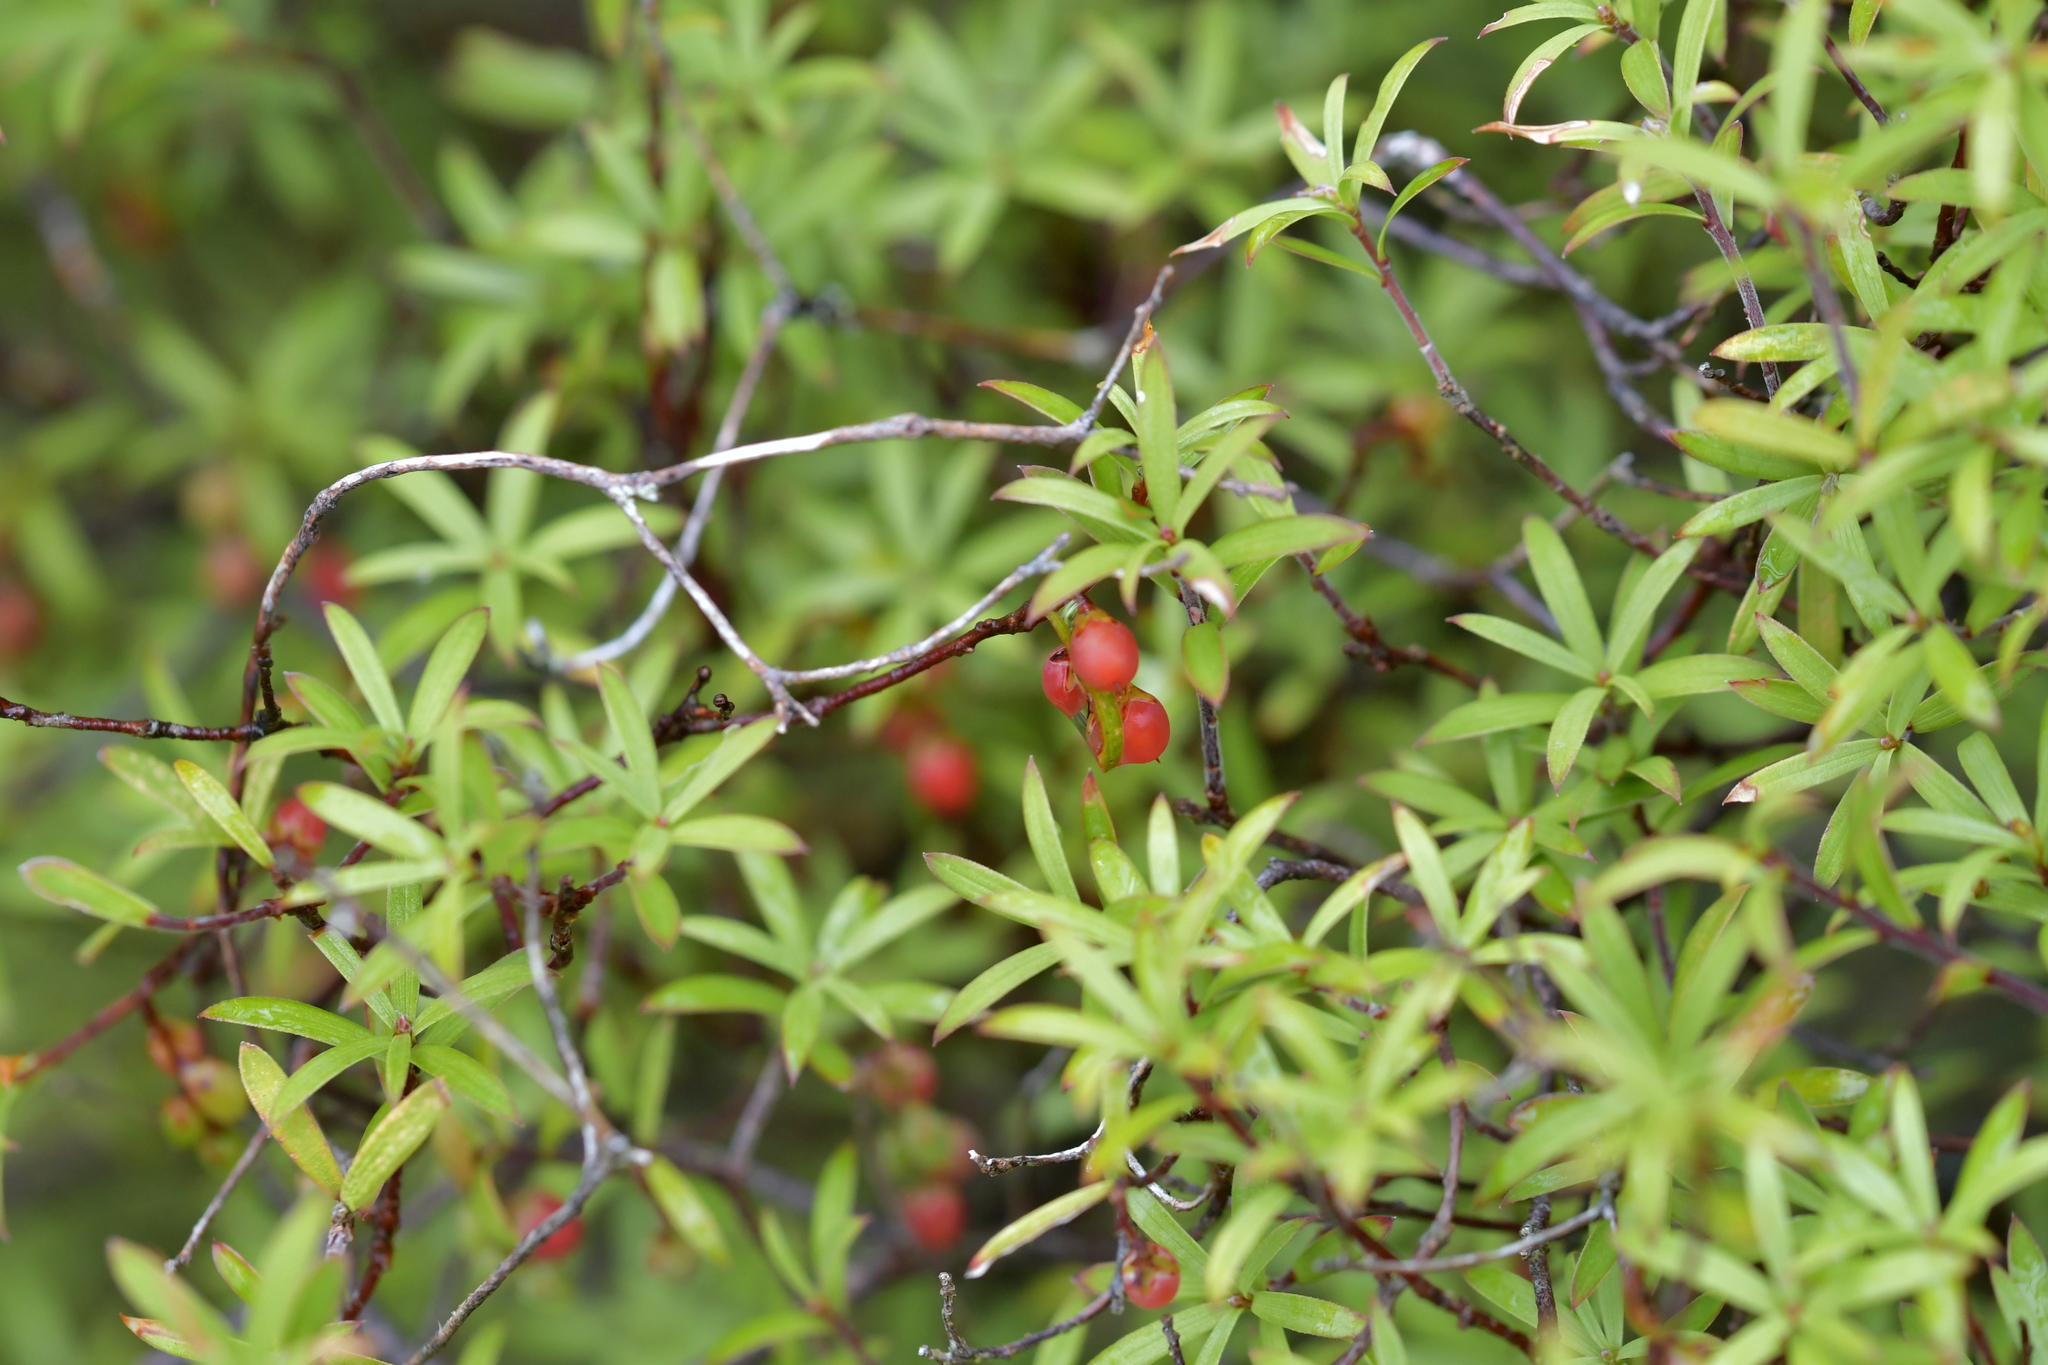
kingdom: Plantae
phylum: Tracheophyta
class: Magnoliopsida
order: Ericales
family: Ericaceae
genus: Leucopogon
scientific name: Leucopogon fasciculatus
